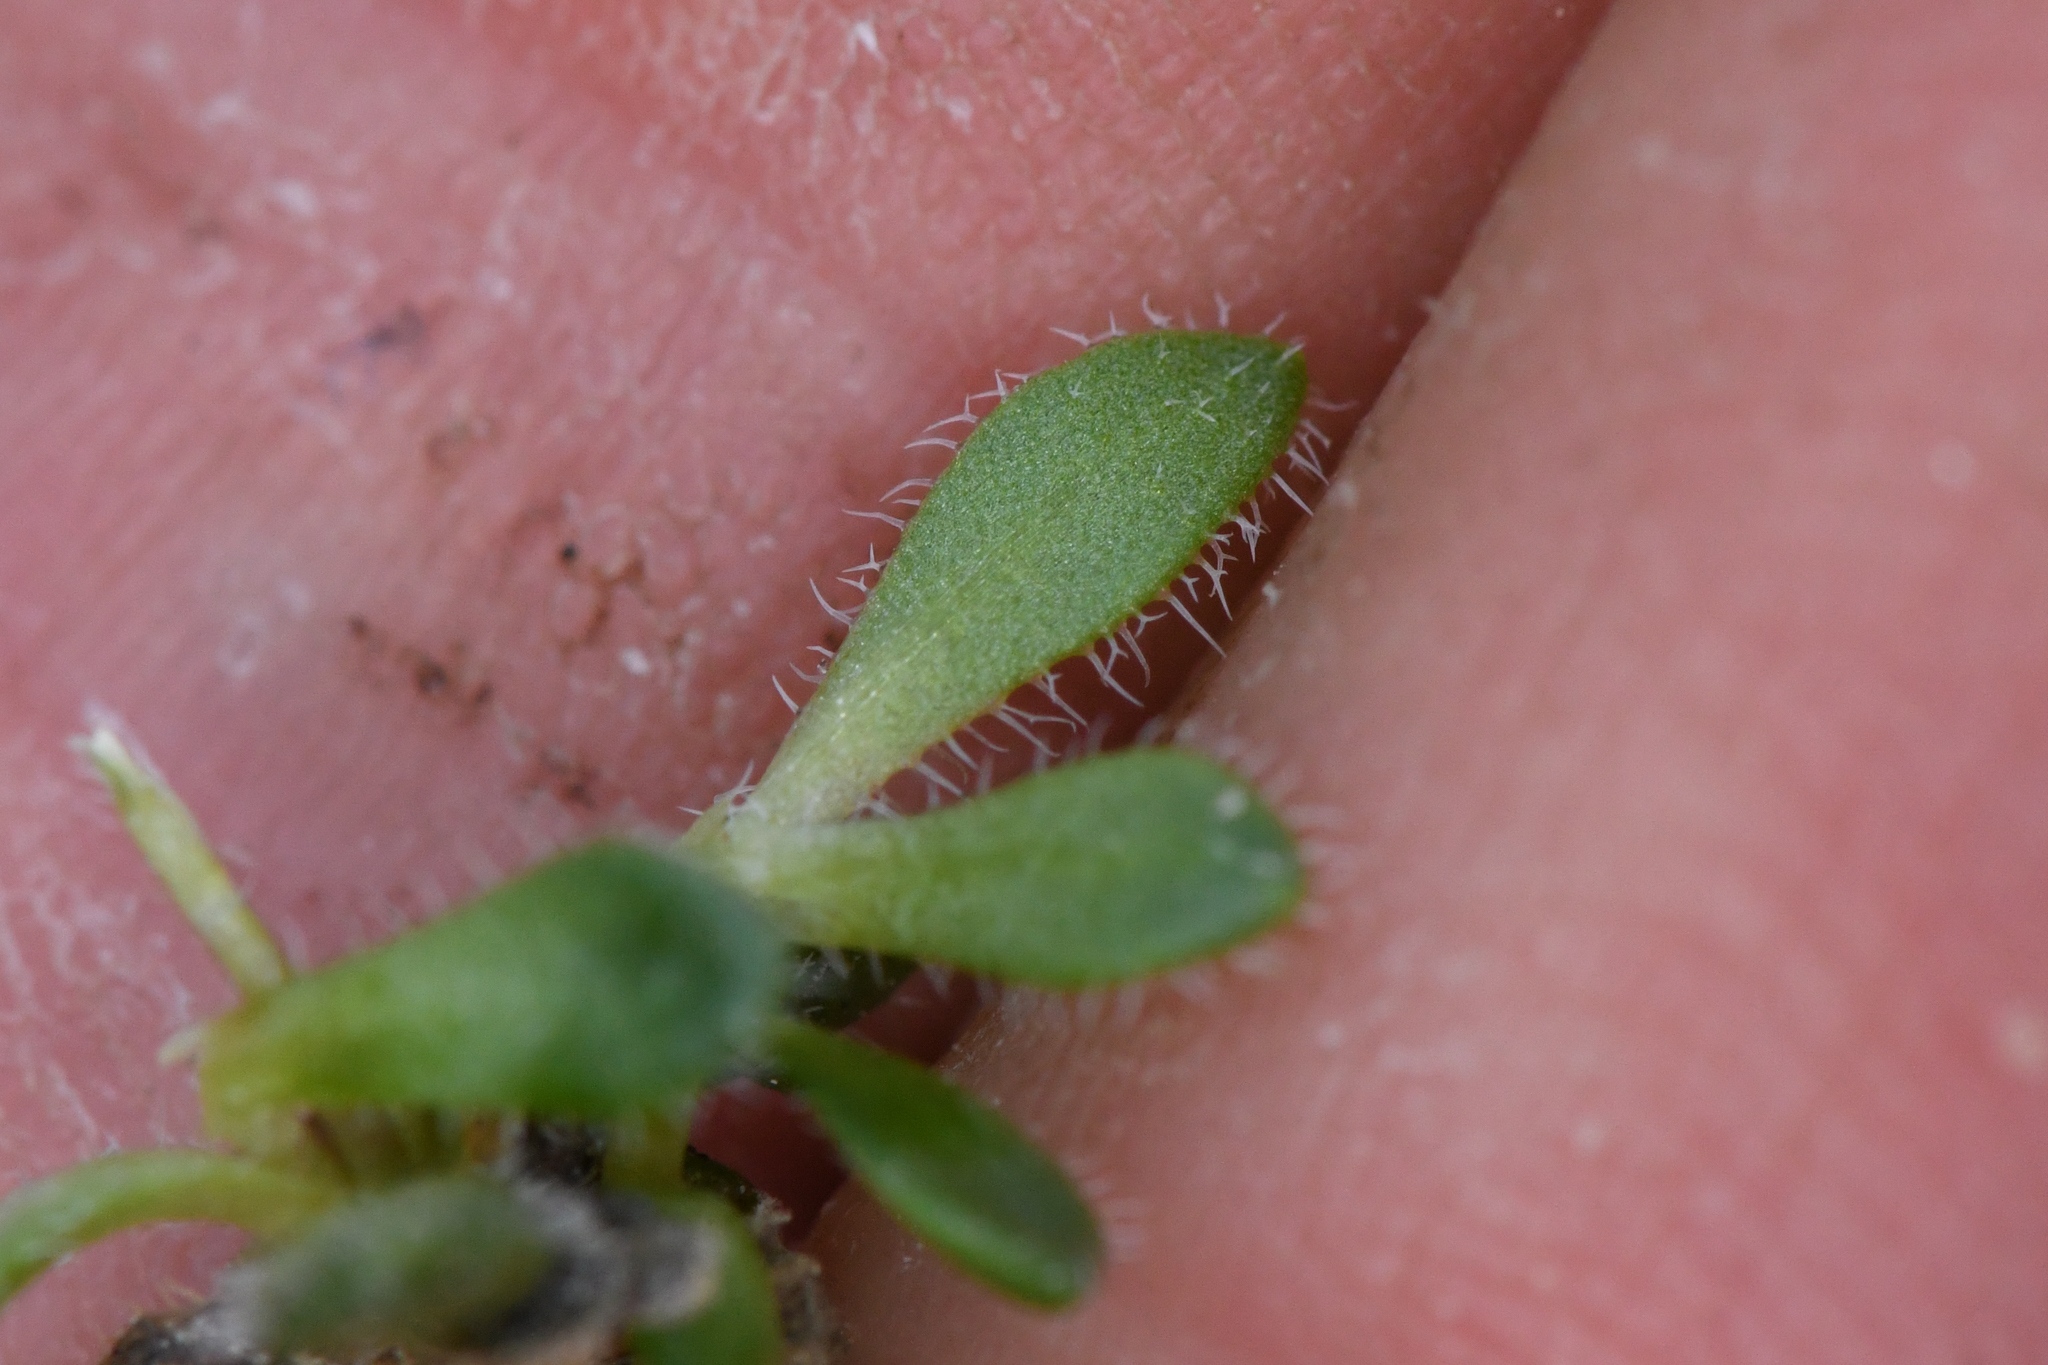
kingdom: Plantae
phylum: Tracheophyta
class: Magnoliopsida
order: Brassicales
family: Brassicaceae
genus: Draba
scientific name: Draba lemmonii
